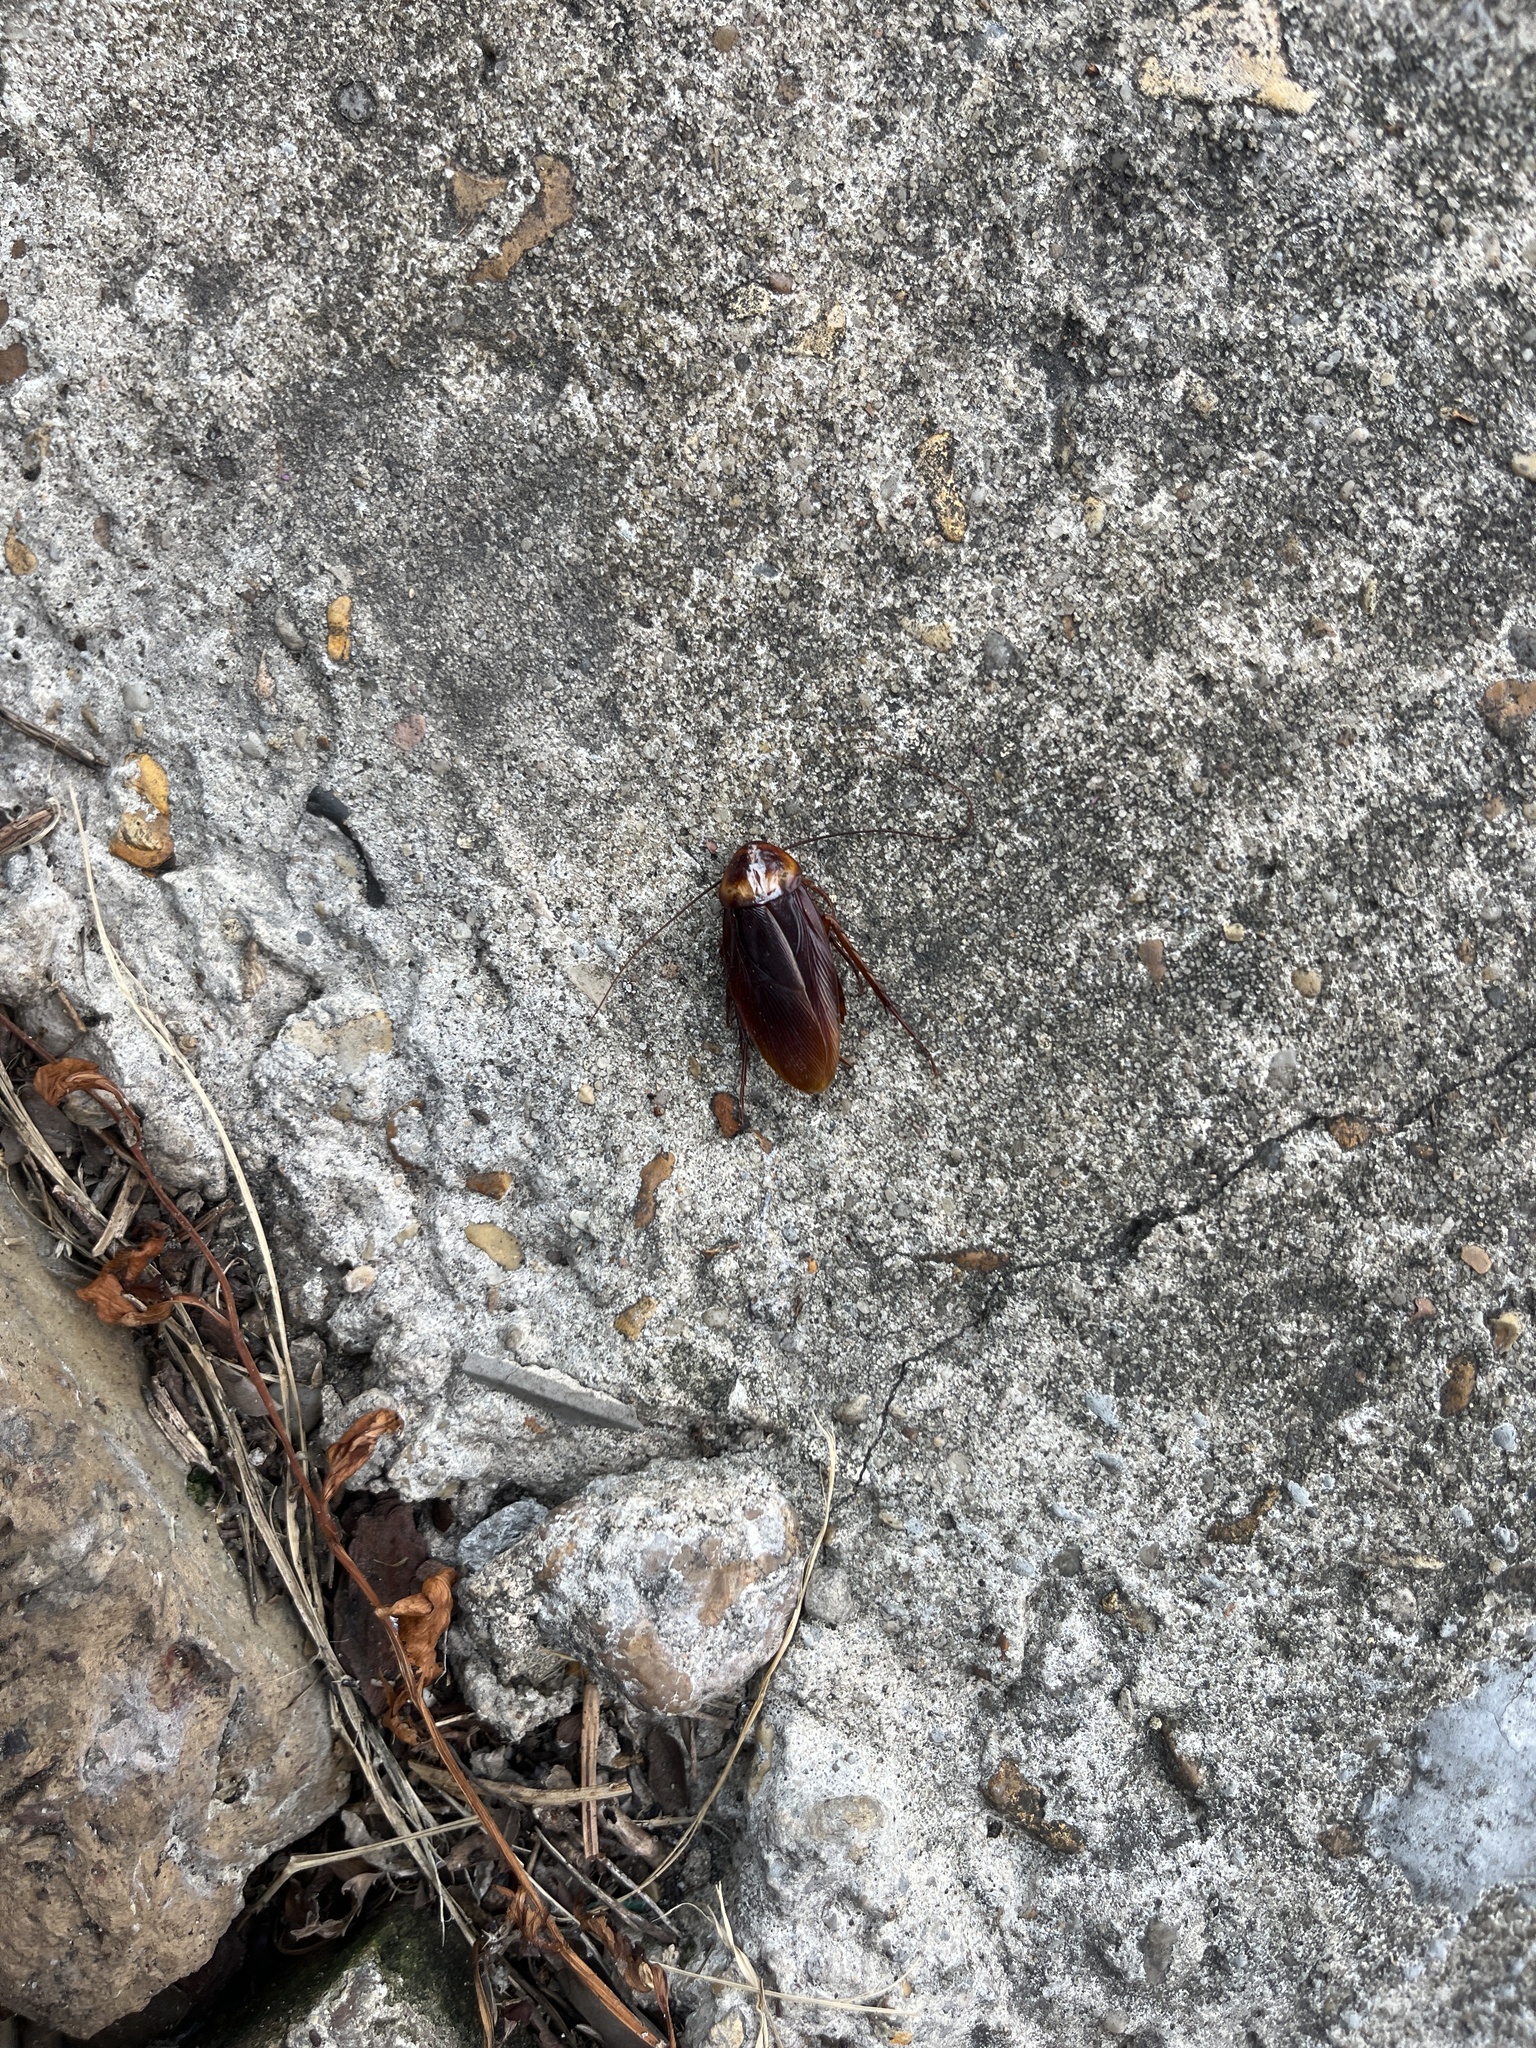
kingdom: Animalia
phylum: Arthropoda
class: Insecta
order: Blattodea
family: Blattidae
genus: Periplaneta
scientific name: Periplaneta americana
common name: American cockroach
